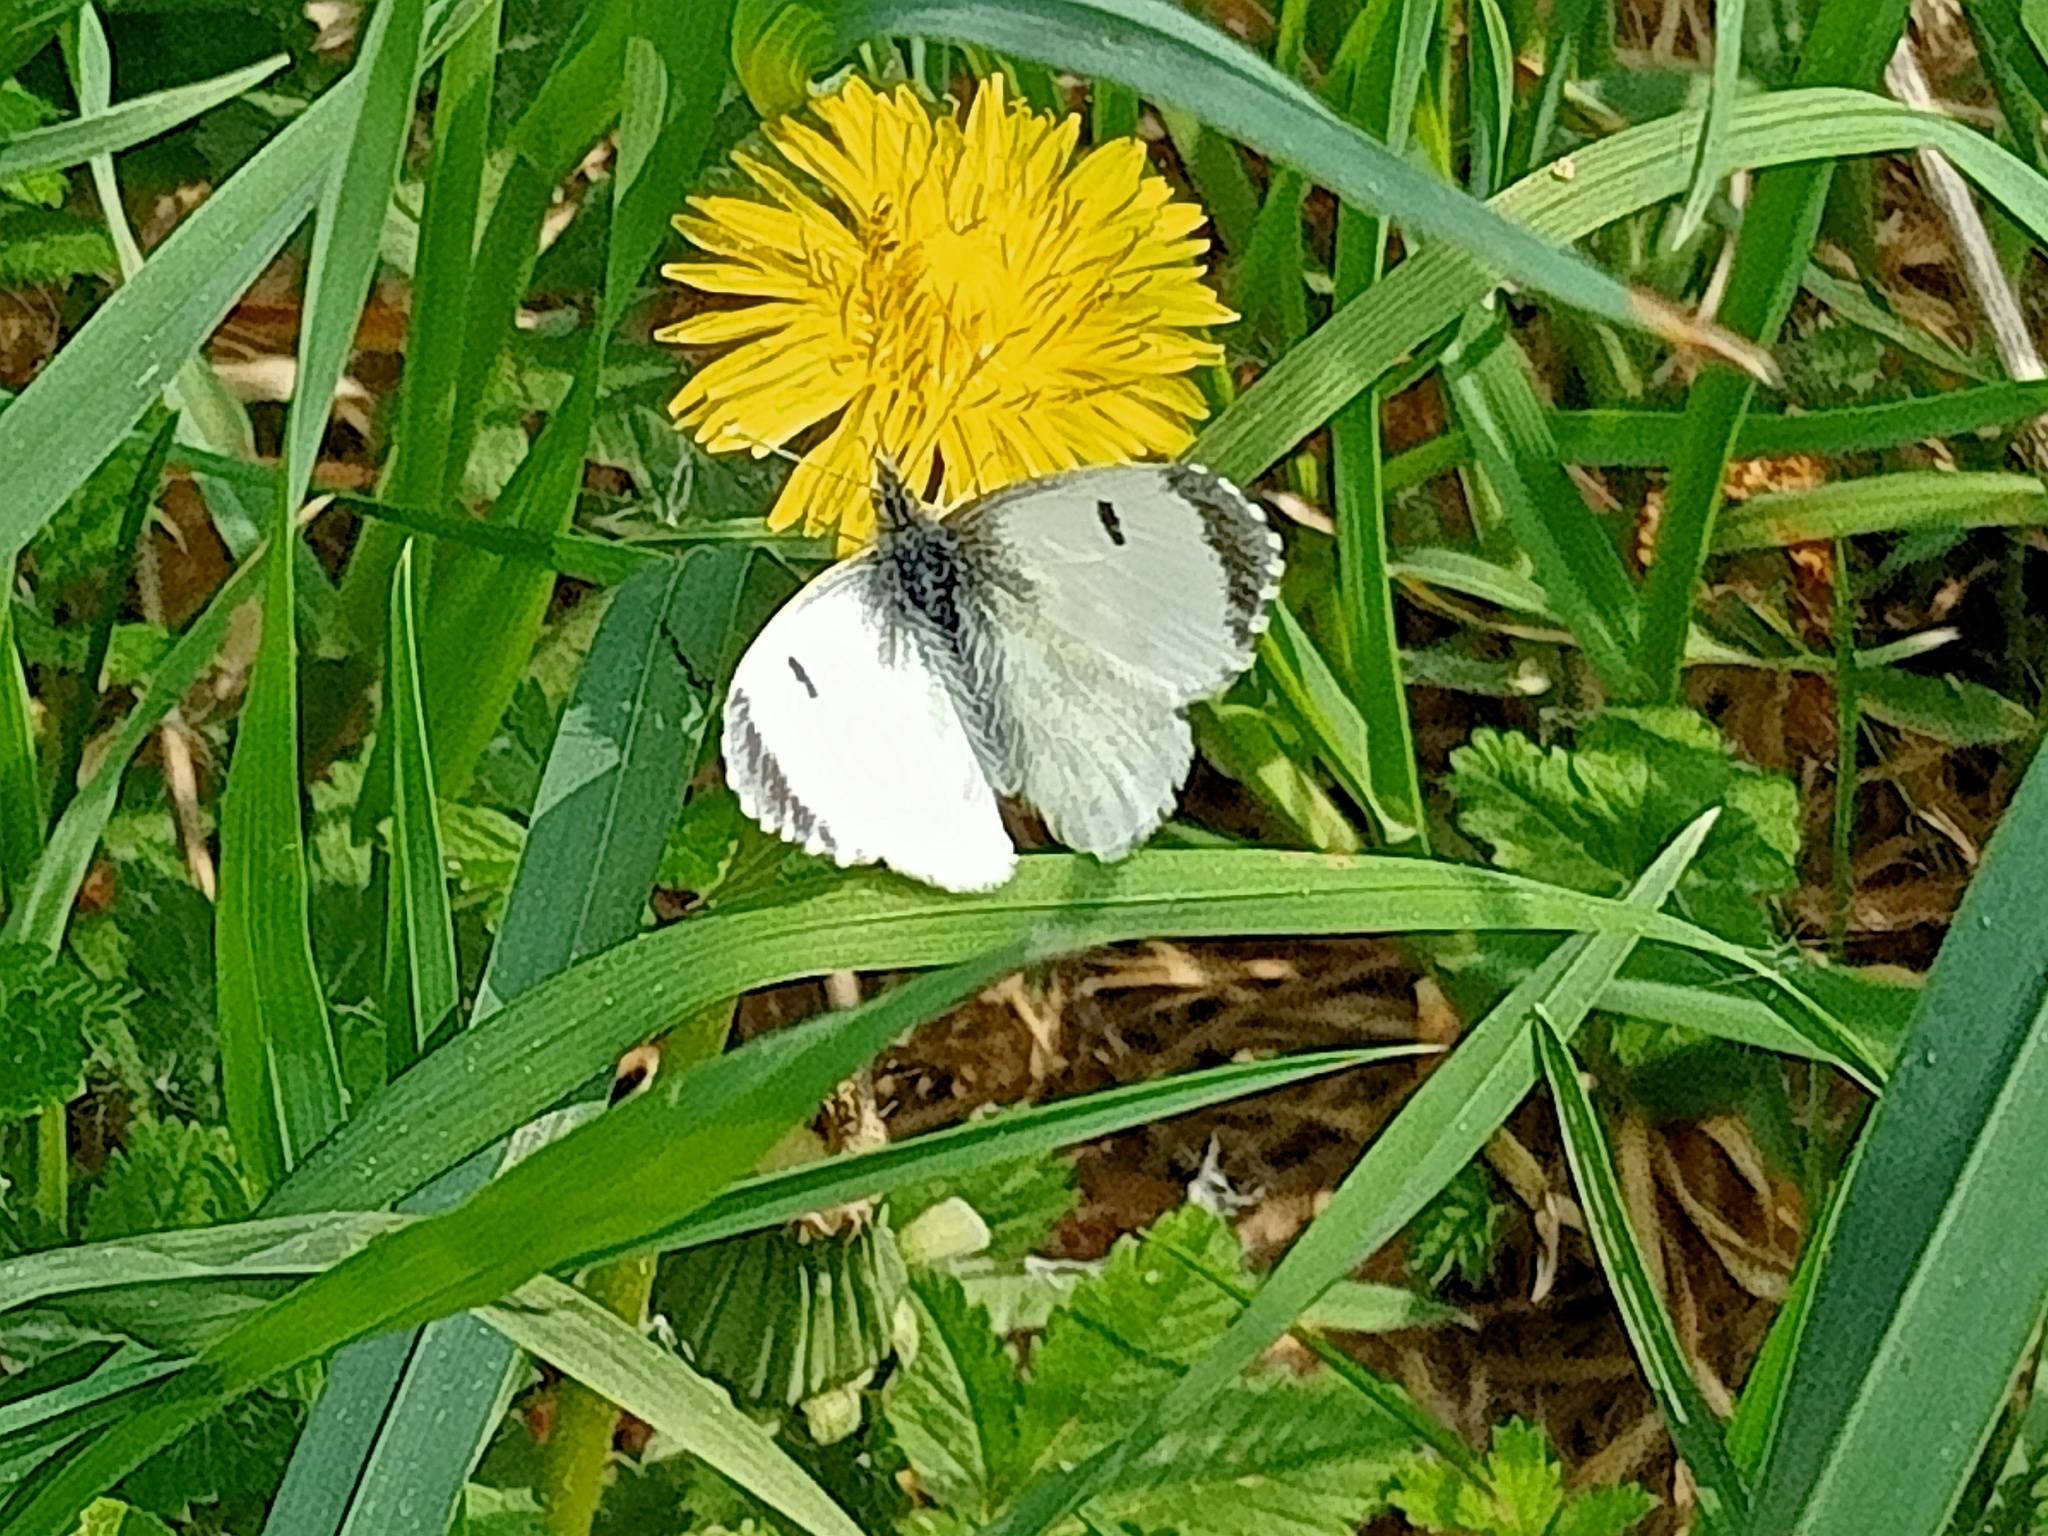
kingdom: Animalia
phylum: Arthropoda
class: Insecta
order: Lepidoptera
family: Pieridae
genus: Anthocharis
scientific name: Anthocharis cardamines
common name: Orange-tip
